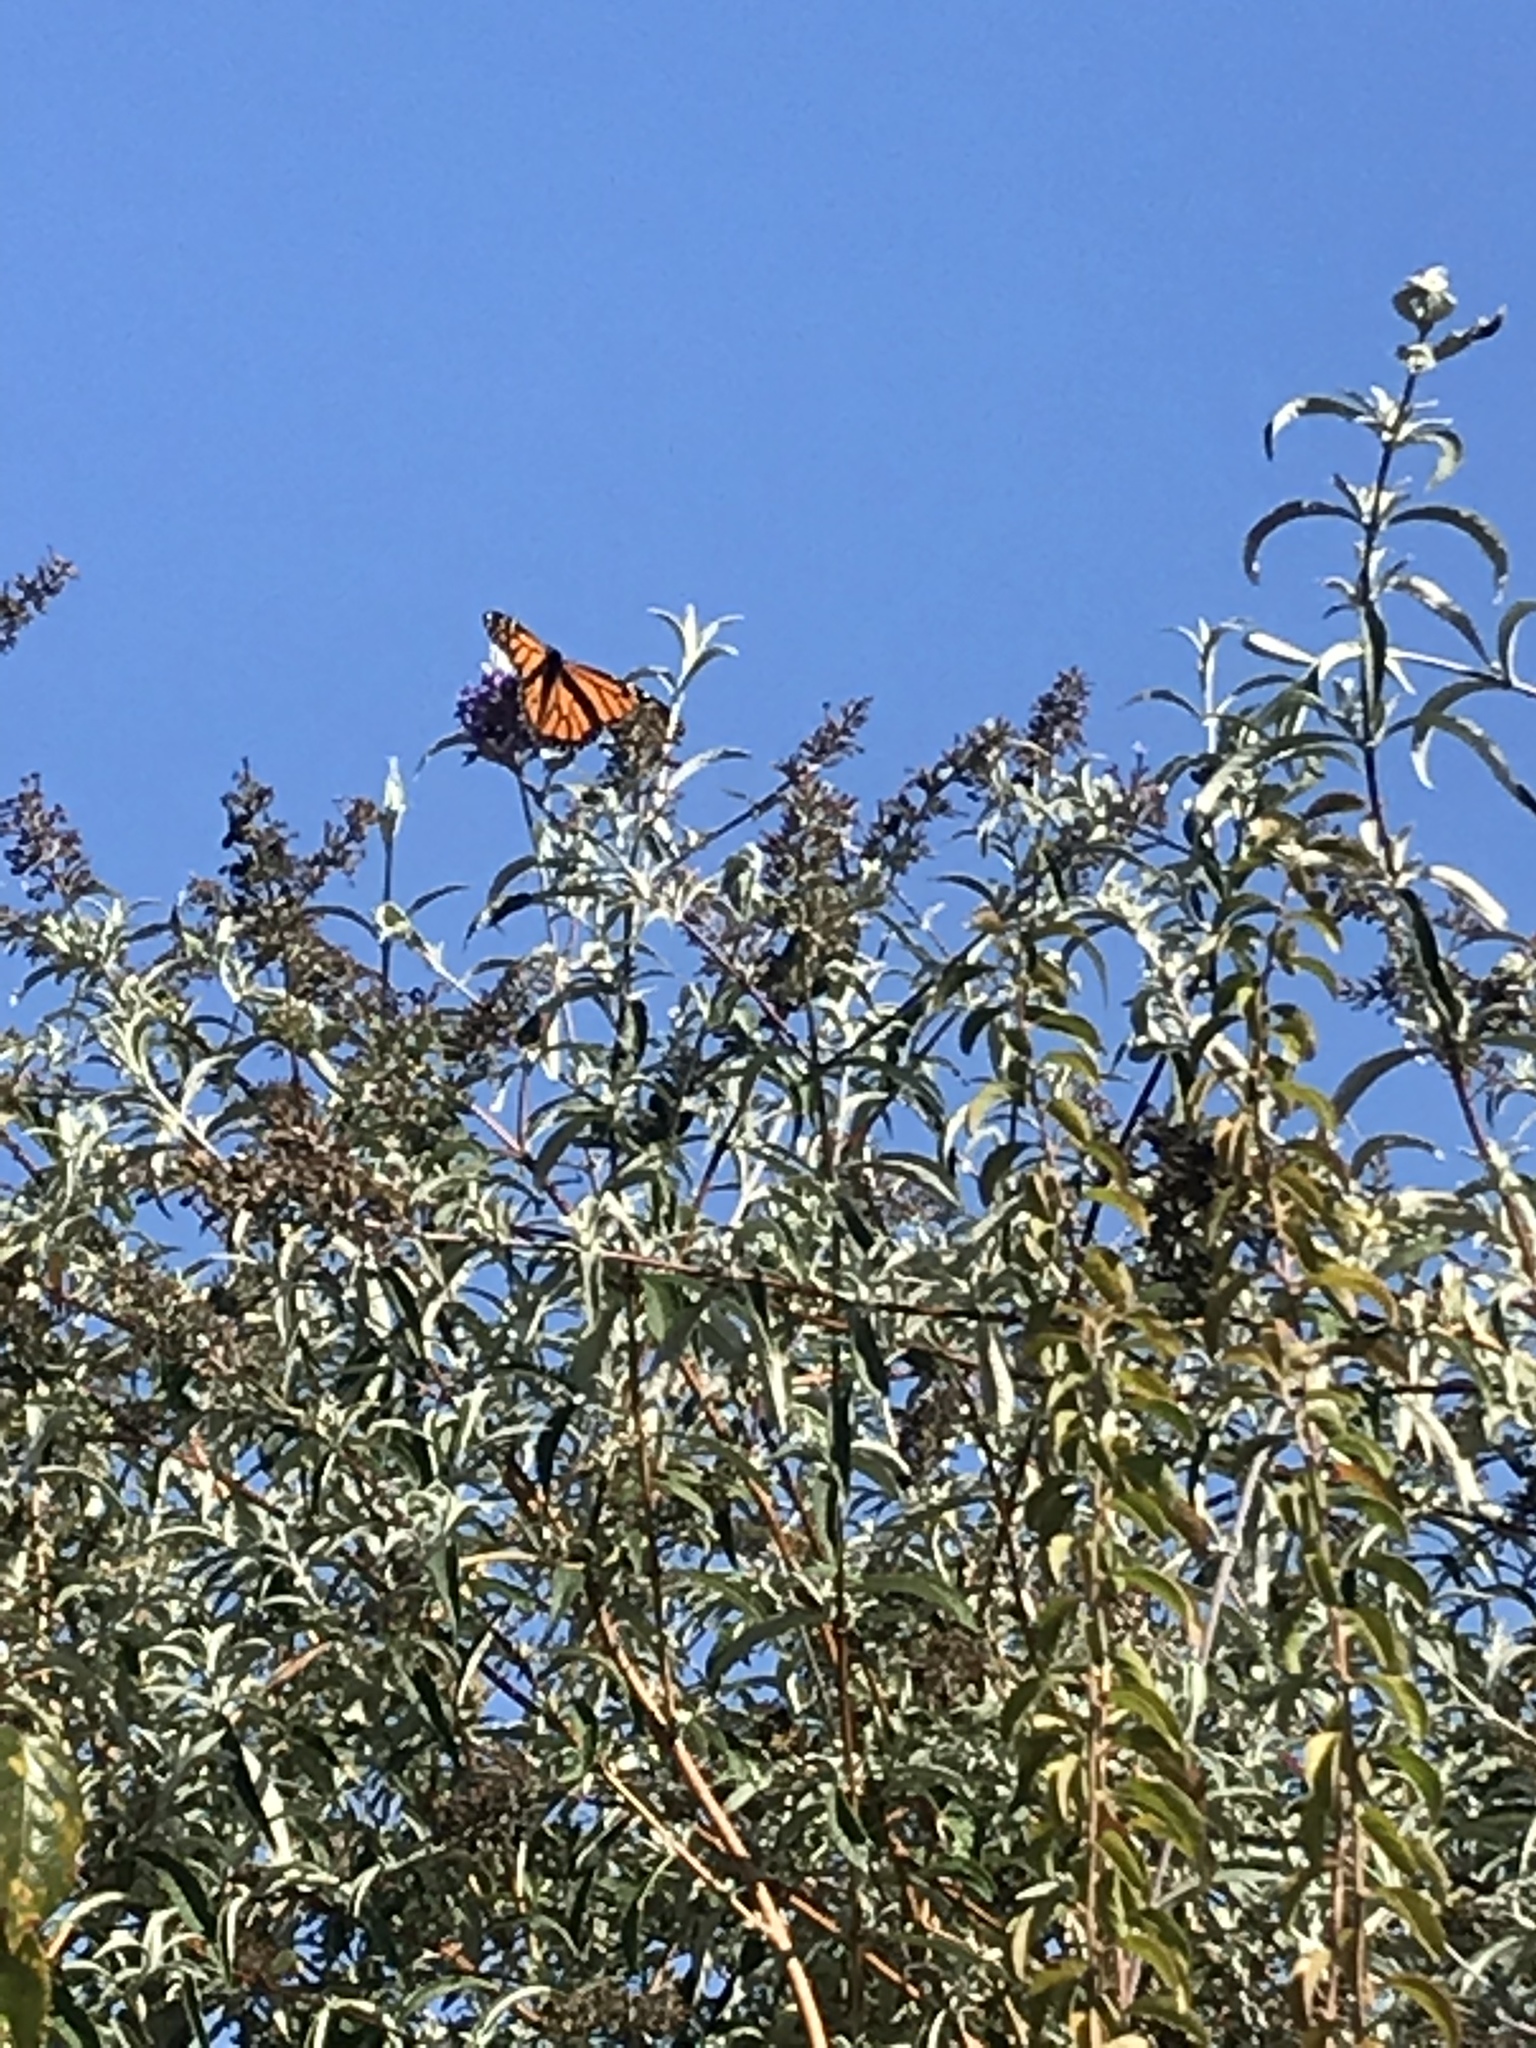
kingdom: Animalia
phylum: Arthropoda
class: Insecta
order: Lepidoptera
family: Nymphalidae
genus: Danaus
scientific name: Danaus plexippus
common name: Monarch
